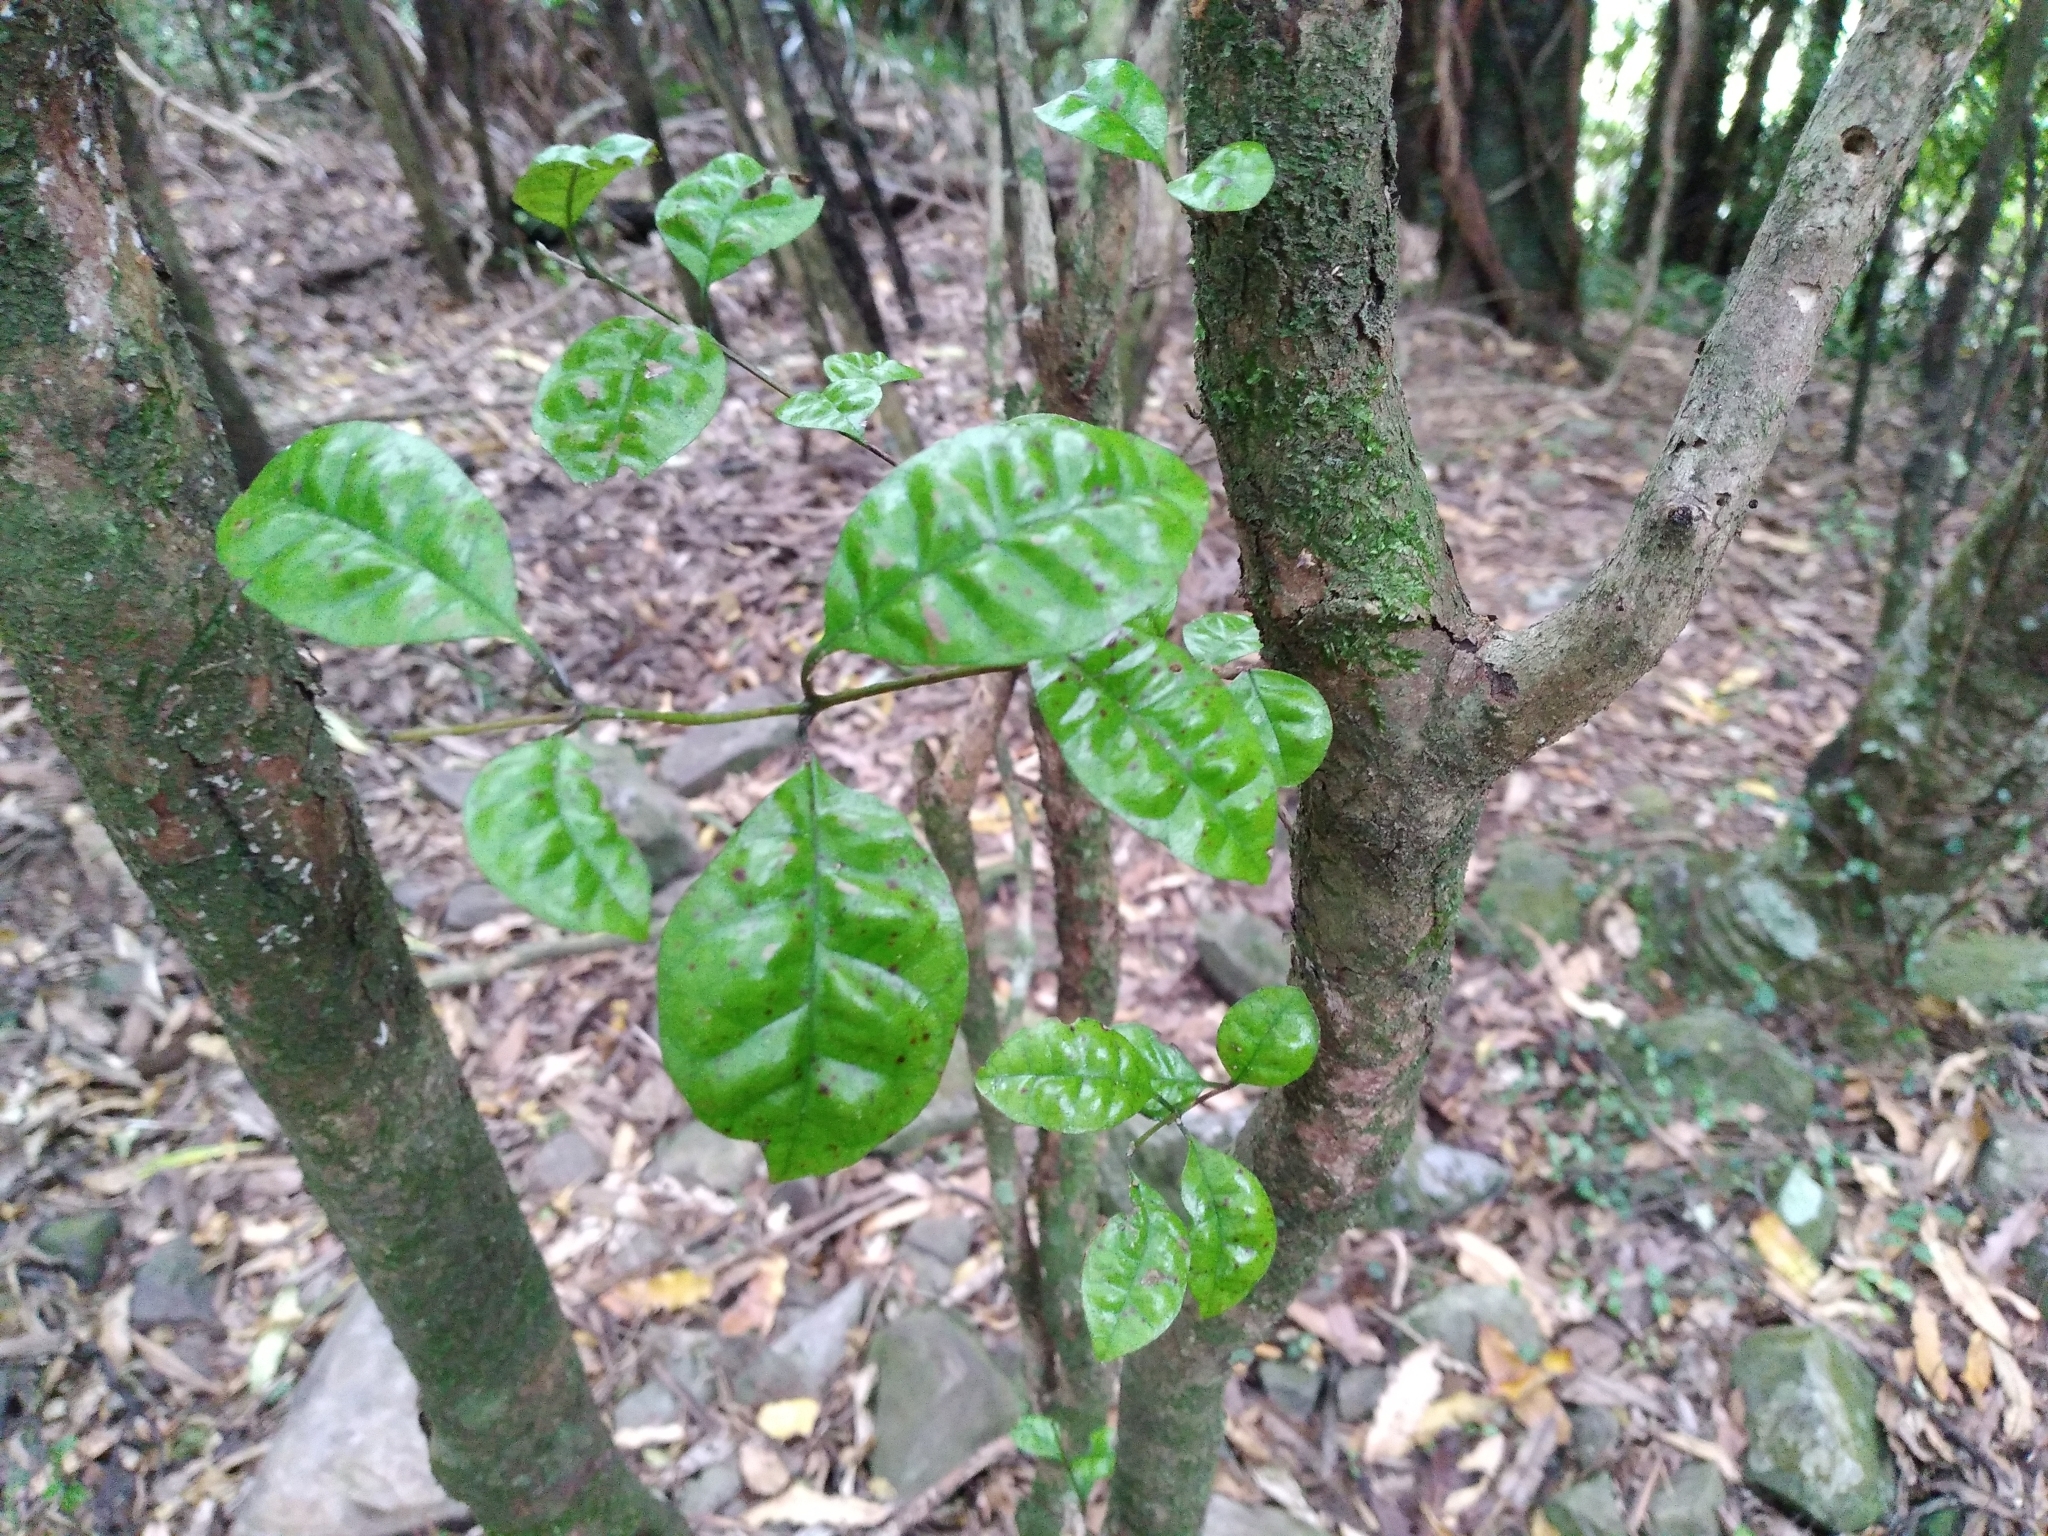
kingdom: Plantae
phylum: Tracheophyta
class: Magnoliopsida
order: Myrtales
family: Myrtaceae
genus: Lophomyrtus
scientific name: Lophomyrtus bullata
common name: Rama rama
